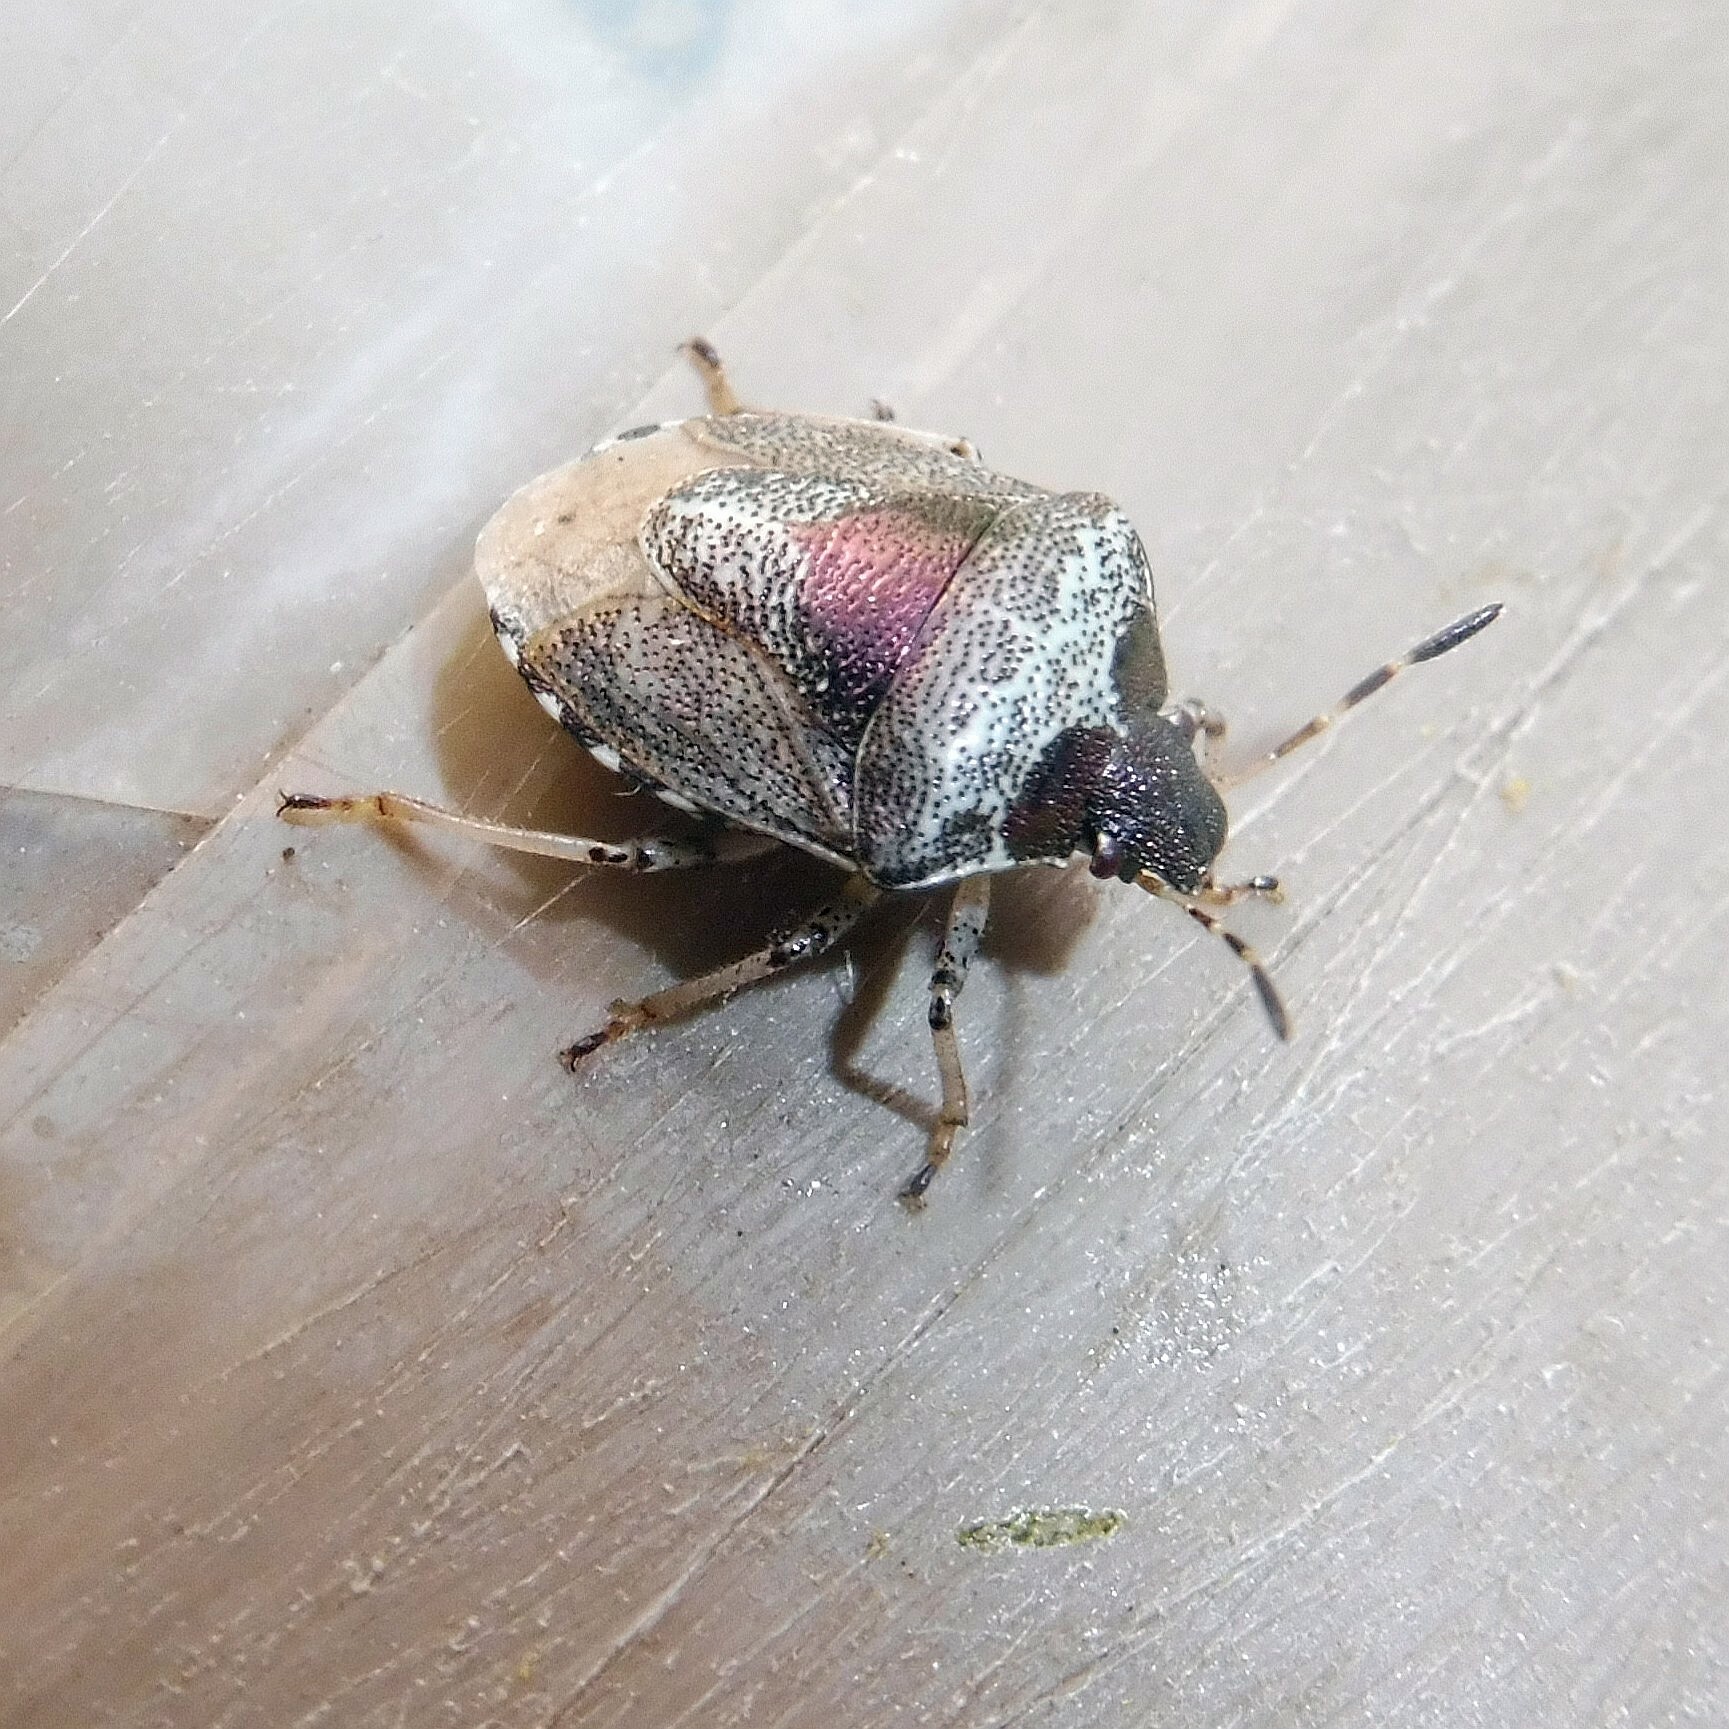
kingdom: Animalia
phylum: Arthropoda
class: Insecta
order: Hemiptera
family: Pentatomidae
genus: Eysarcoris
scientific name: Eysarcoris venustissimus
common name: Woundwort shieldbug
